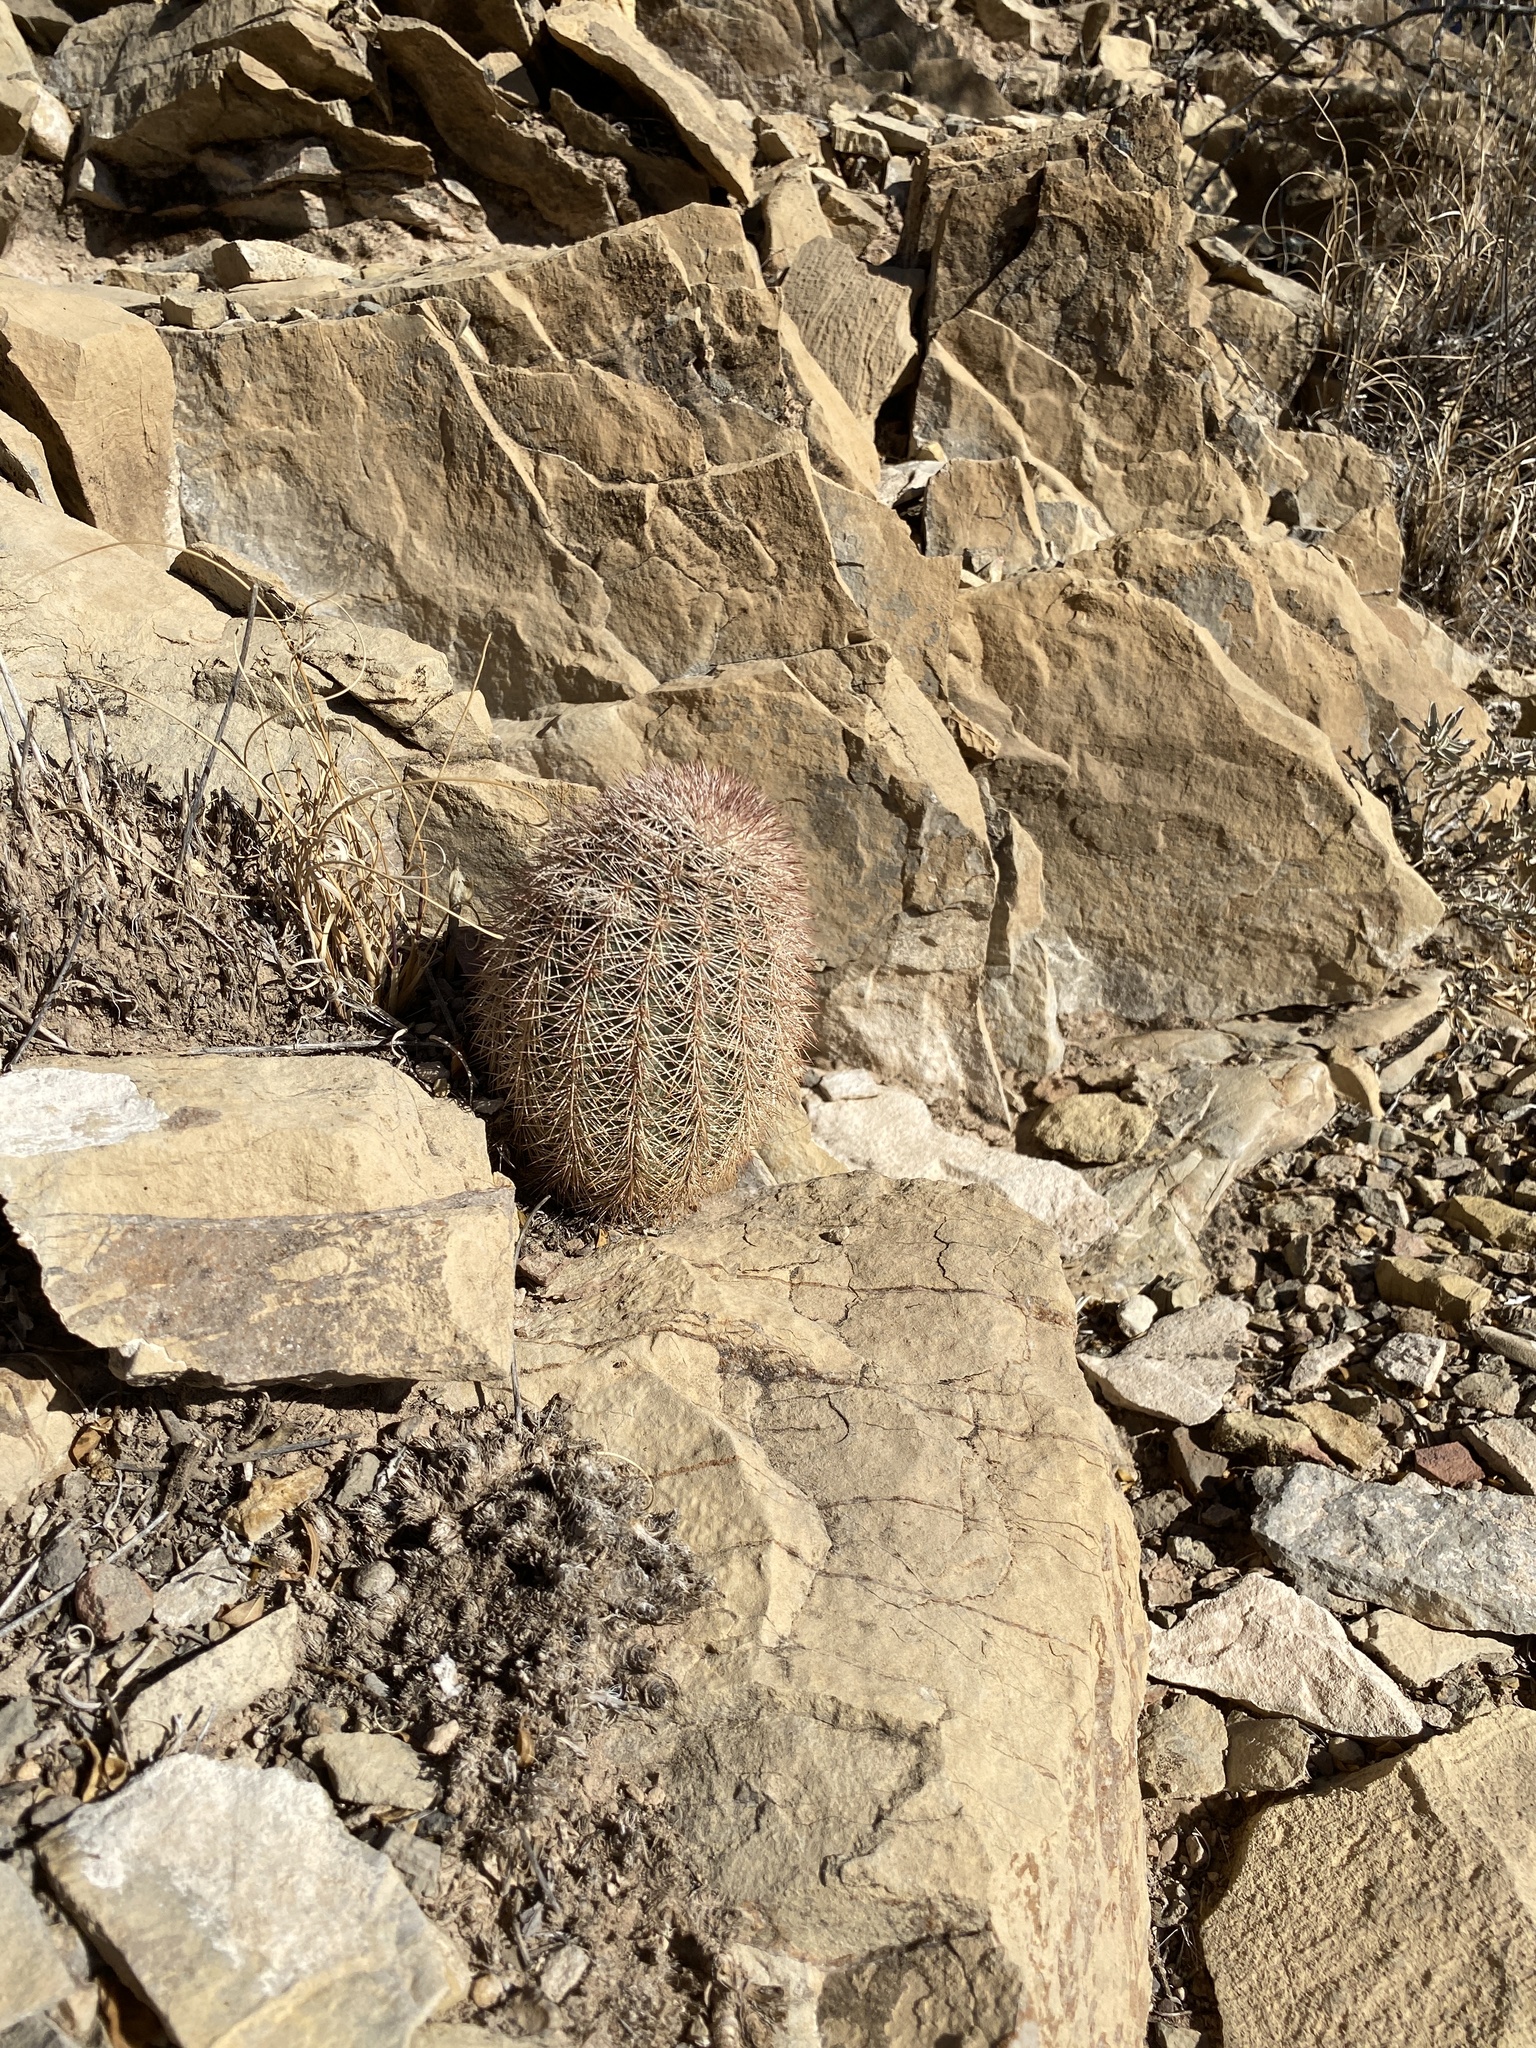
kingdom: Plantae
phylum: Tracheophyta
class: Magnoliopsida
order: Caryophyllales
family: Cactaceae
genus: Echinocereus
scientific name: Echinocereus dasyacanthus
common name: Spiny hedgehog cactus
